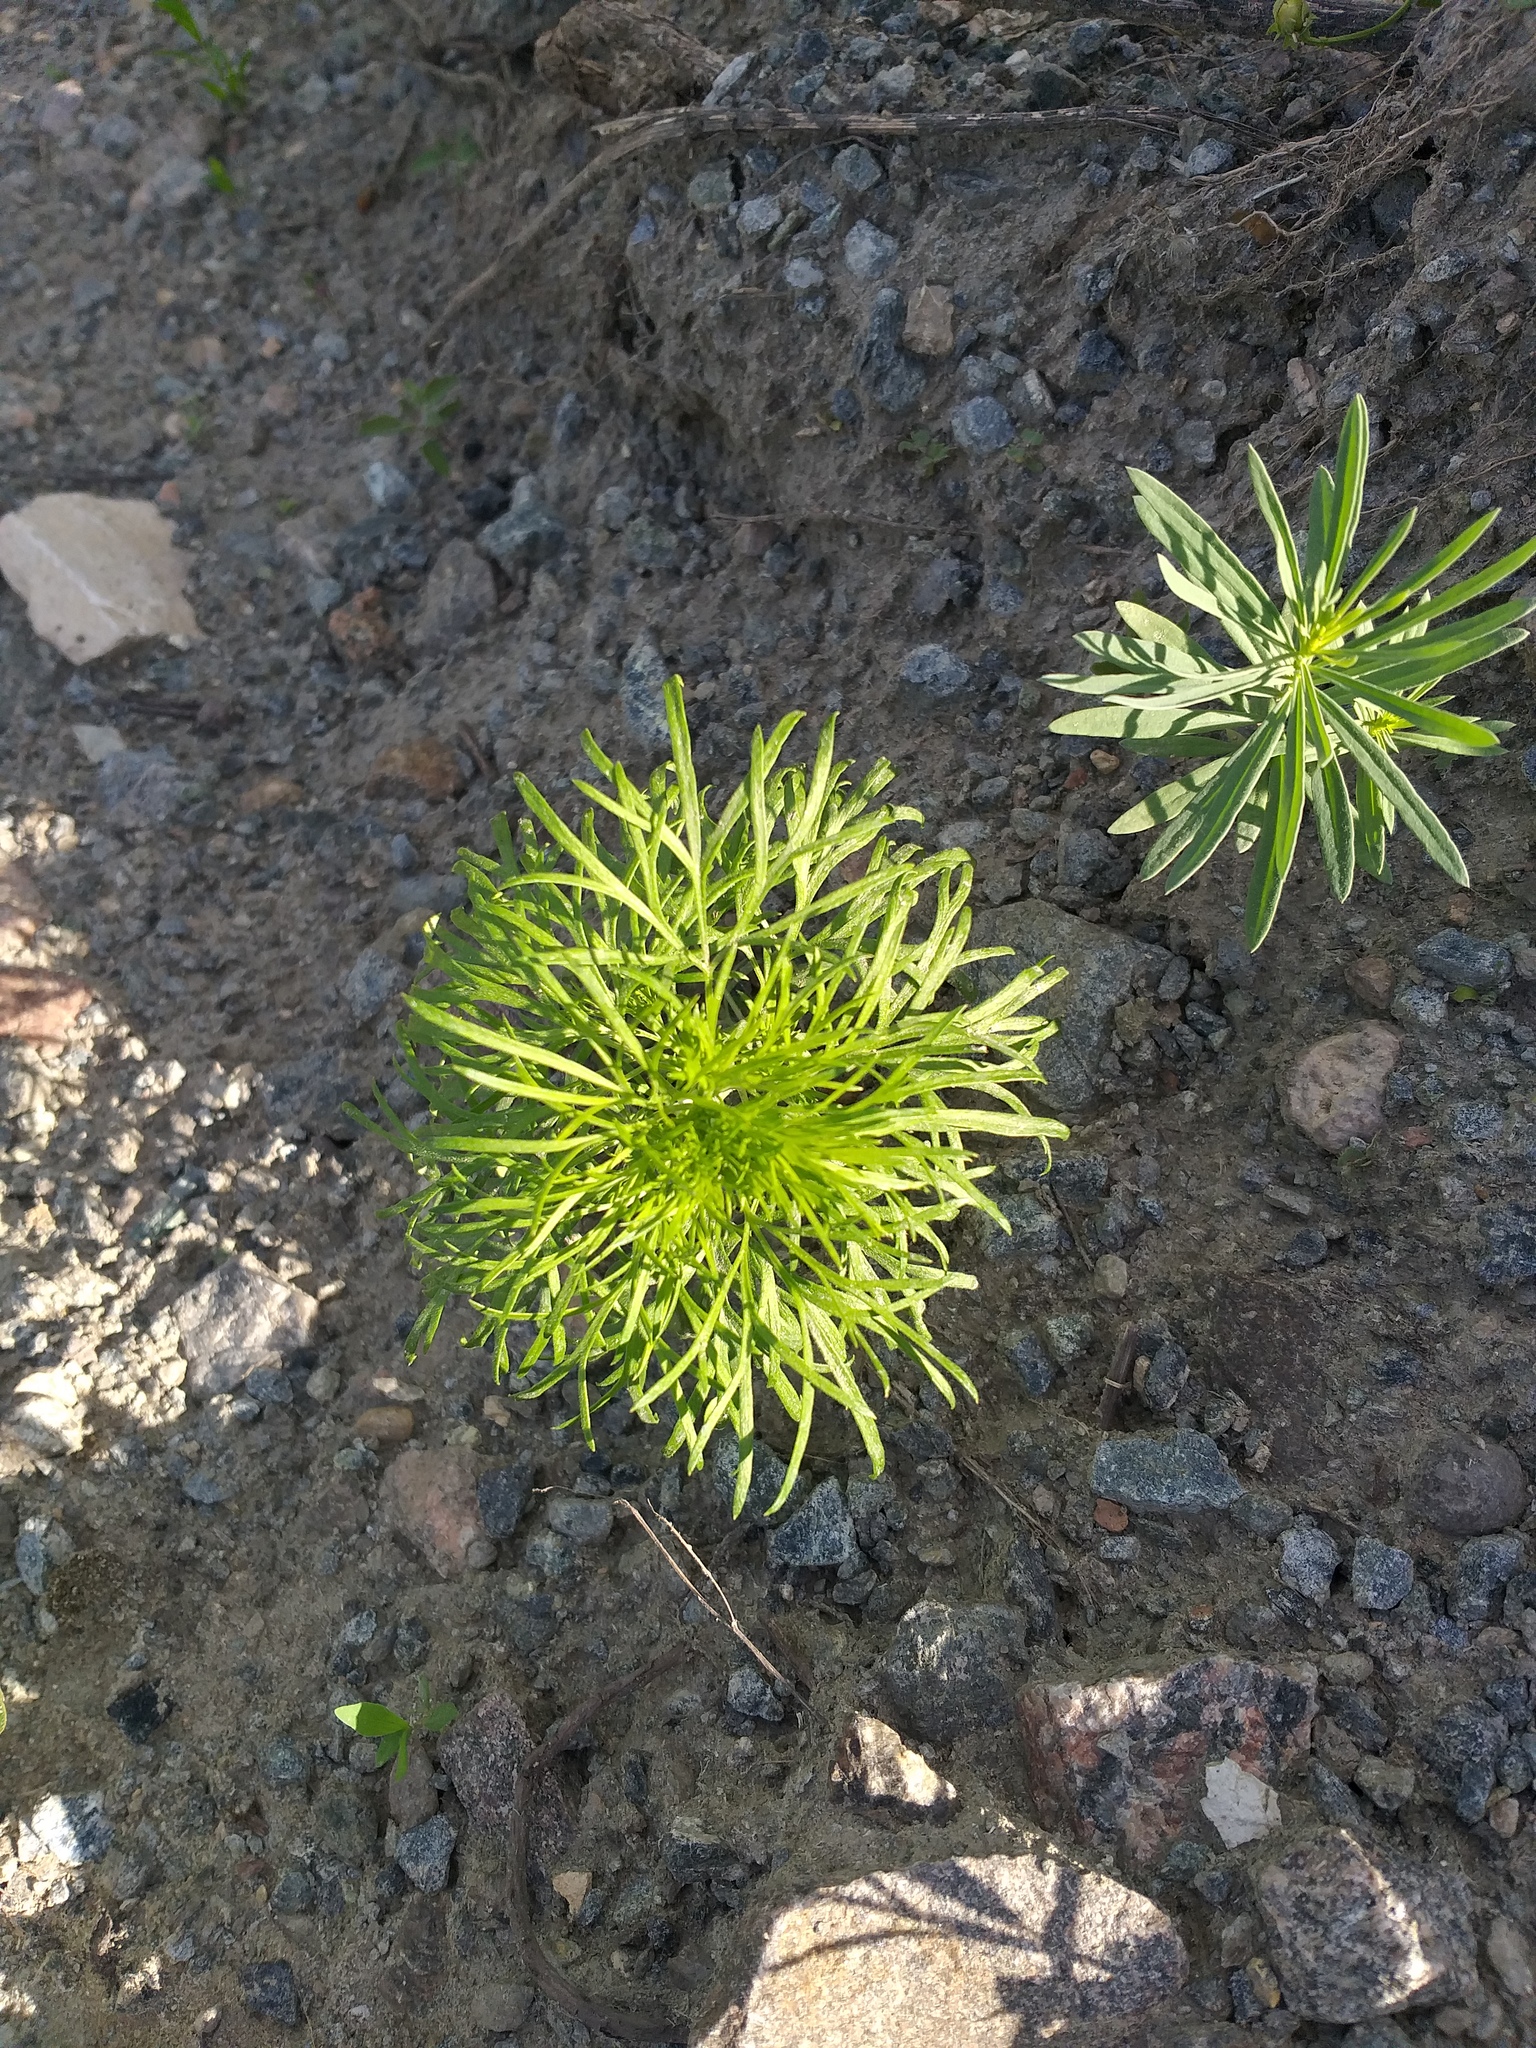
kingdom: Plantae
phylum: Tracheophyta
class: Magnoliopsida
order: Ranunculales
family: Ranunculaceae
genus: Delphinium
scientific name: Delphinium consolida
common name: Branching larkspur
